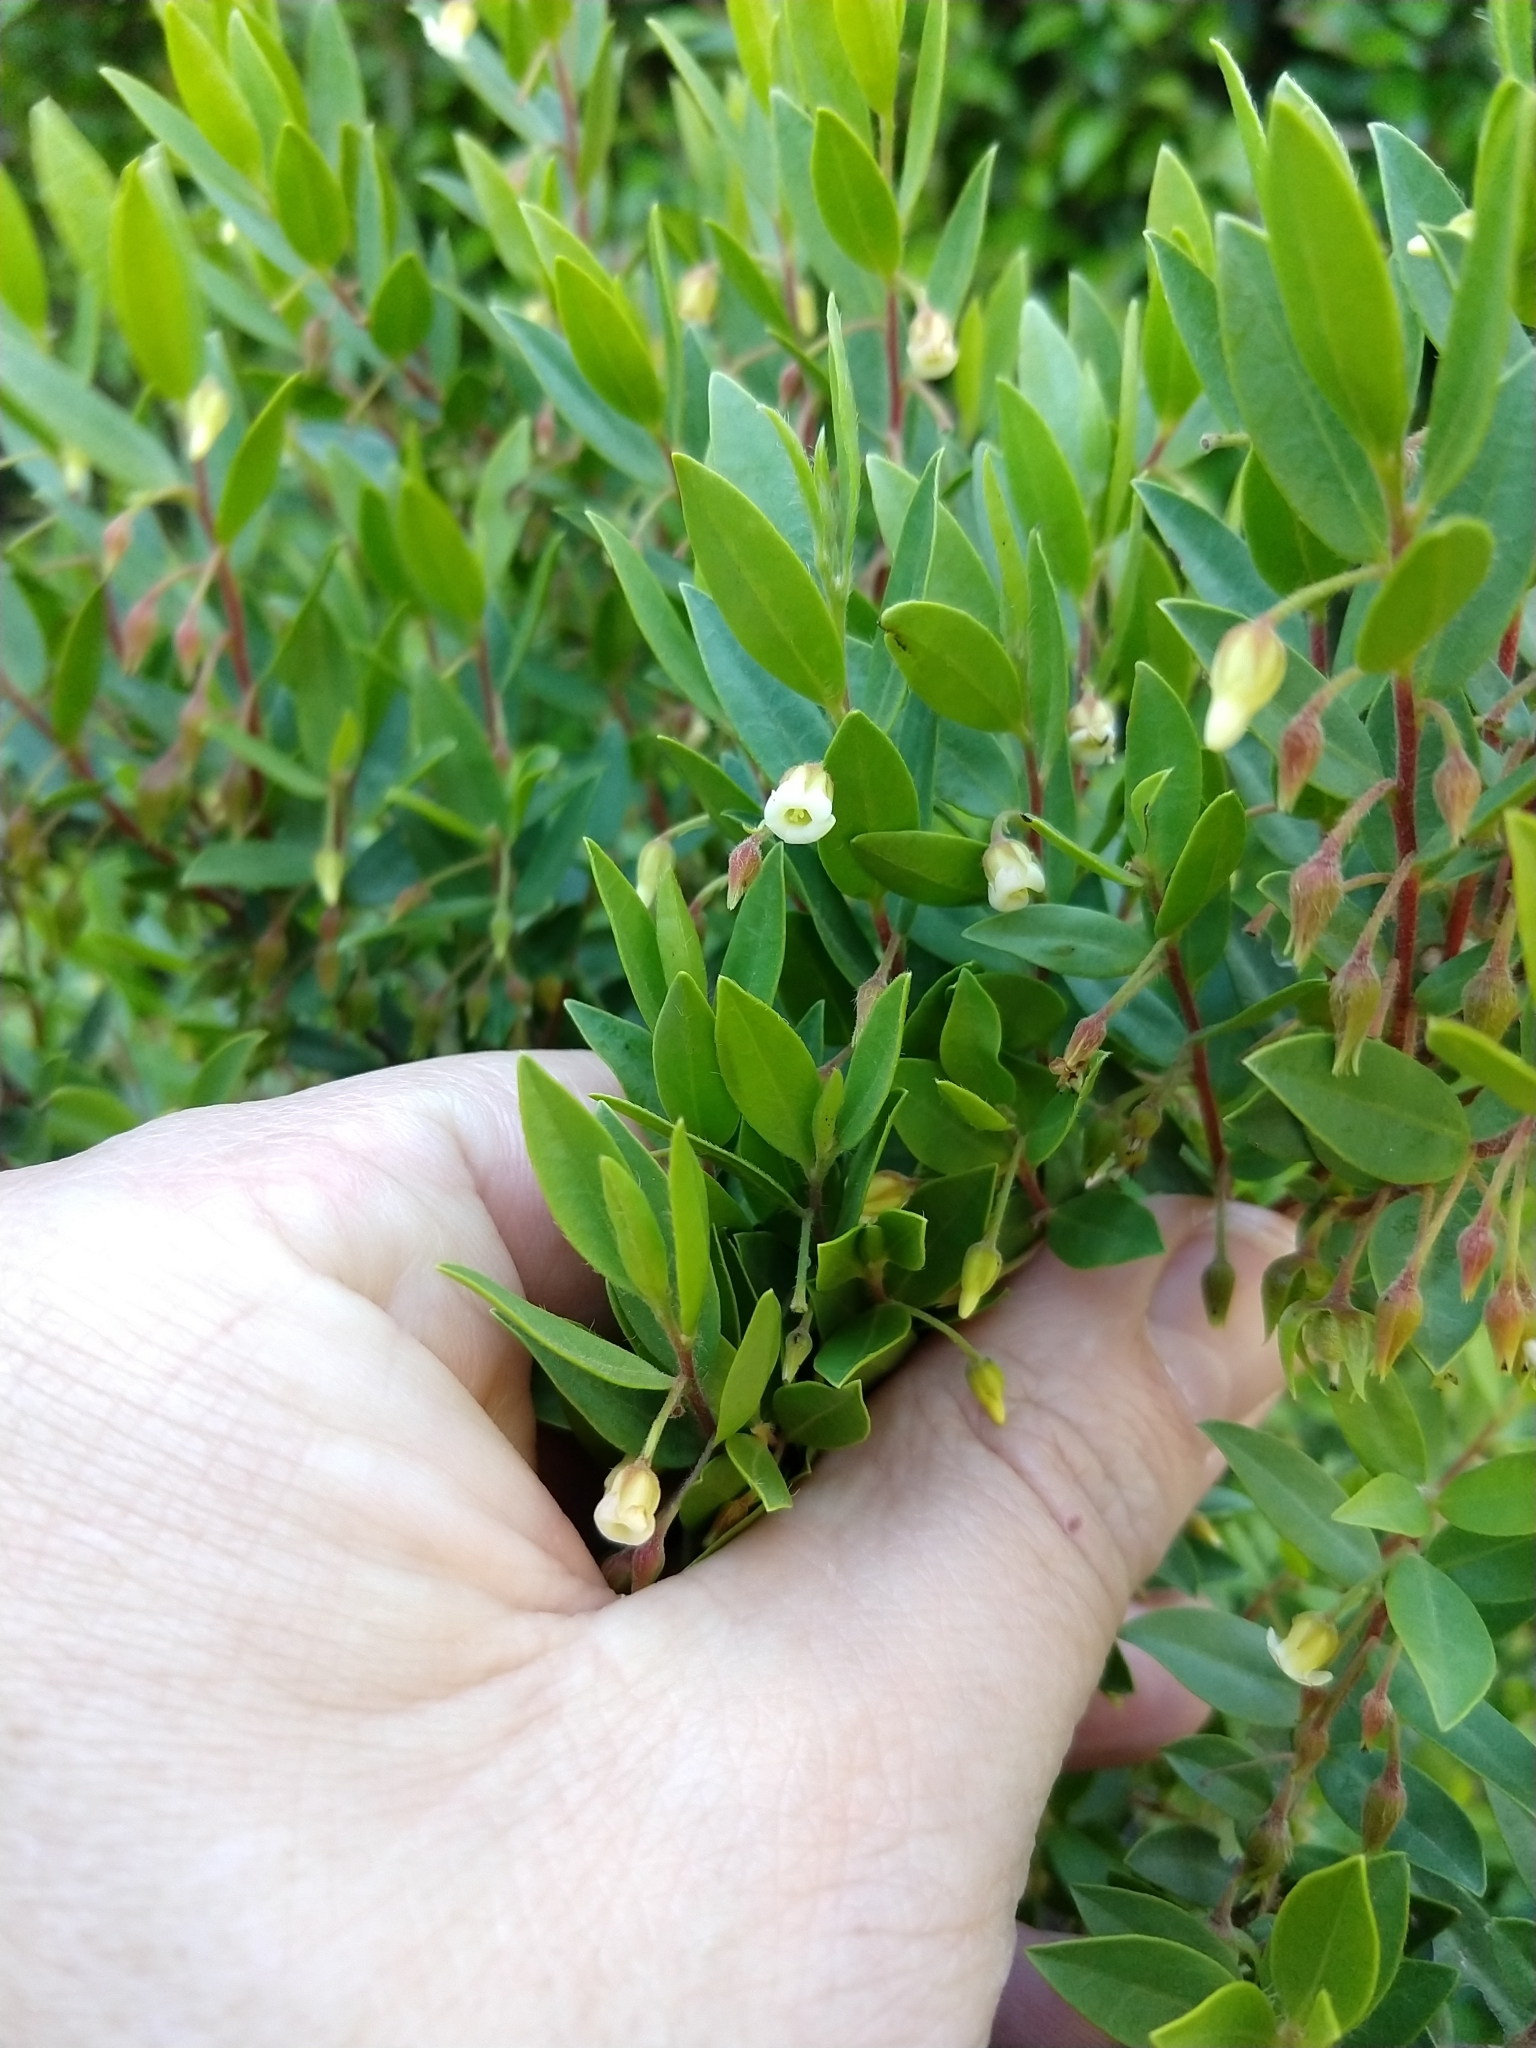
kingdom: Plantae
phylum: Tracheophyta
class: Magnoliopsida
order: Ericales
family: Ebenaceae
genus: Diospyros
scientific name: Diospyros glabra
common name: Fynbos star apple
